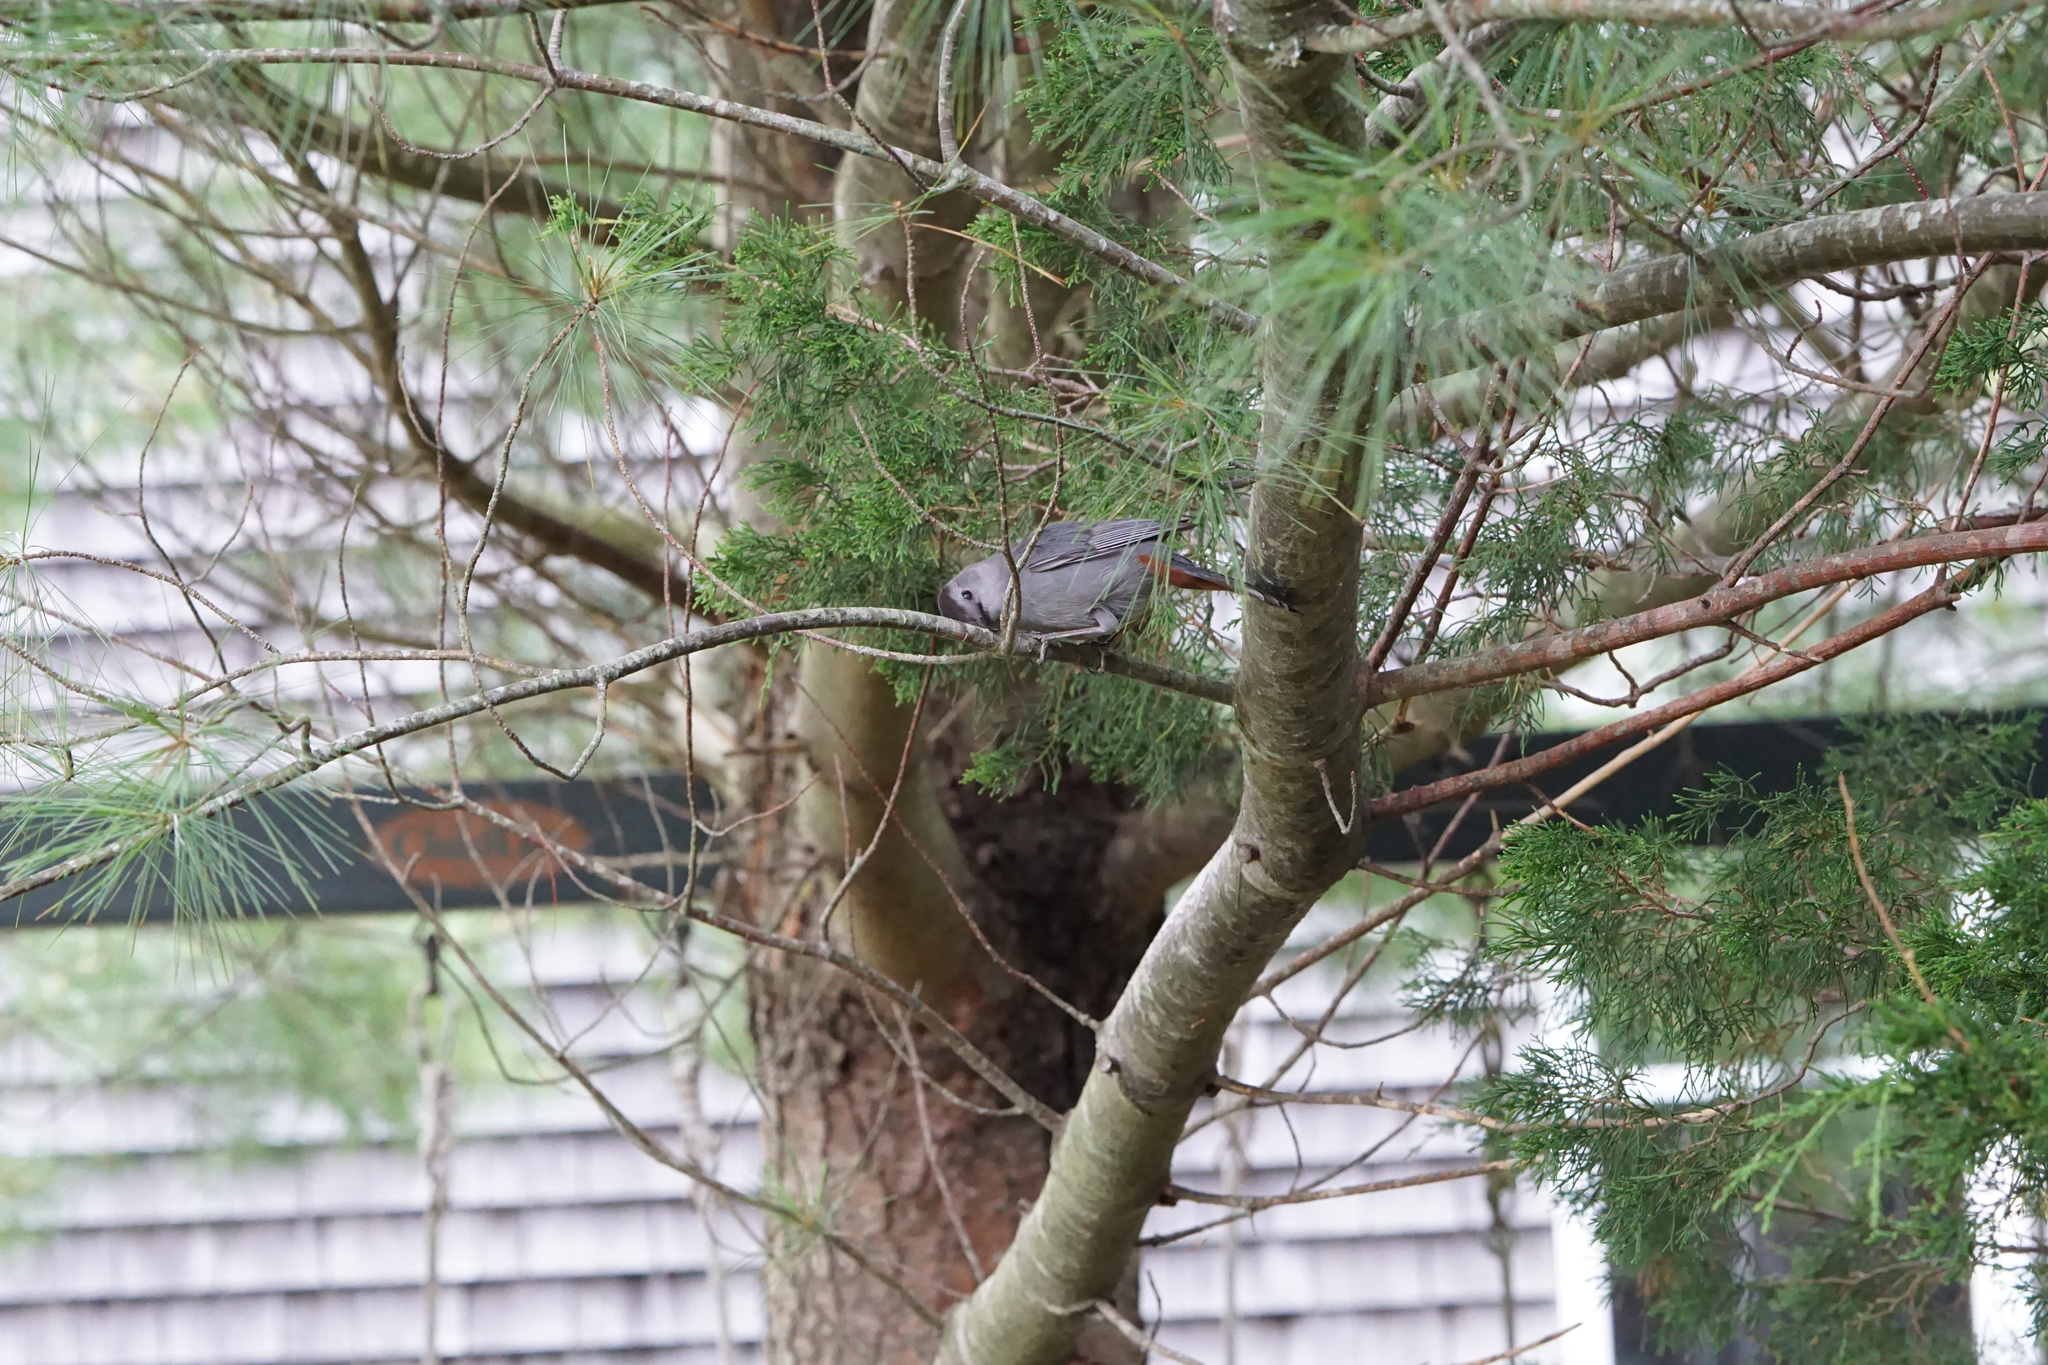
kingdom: Animalia
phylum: Chordata
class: Aves
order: Passeriformes
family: Mimidae
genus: Dumetella
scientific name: Dumetella carolinensis
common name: Gray catbird
